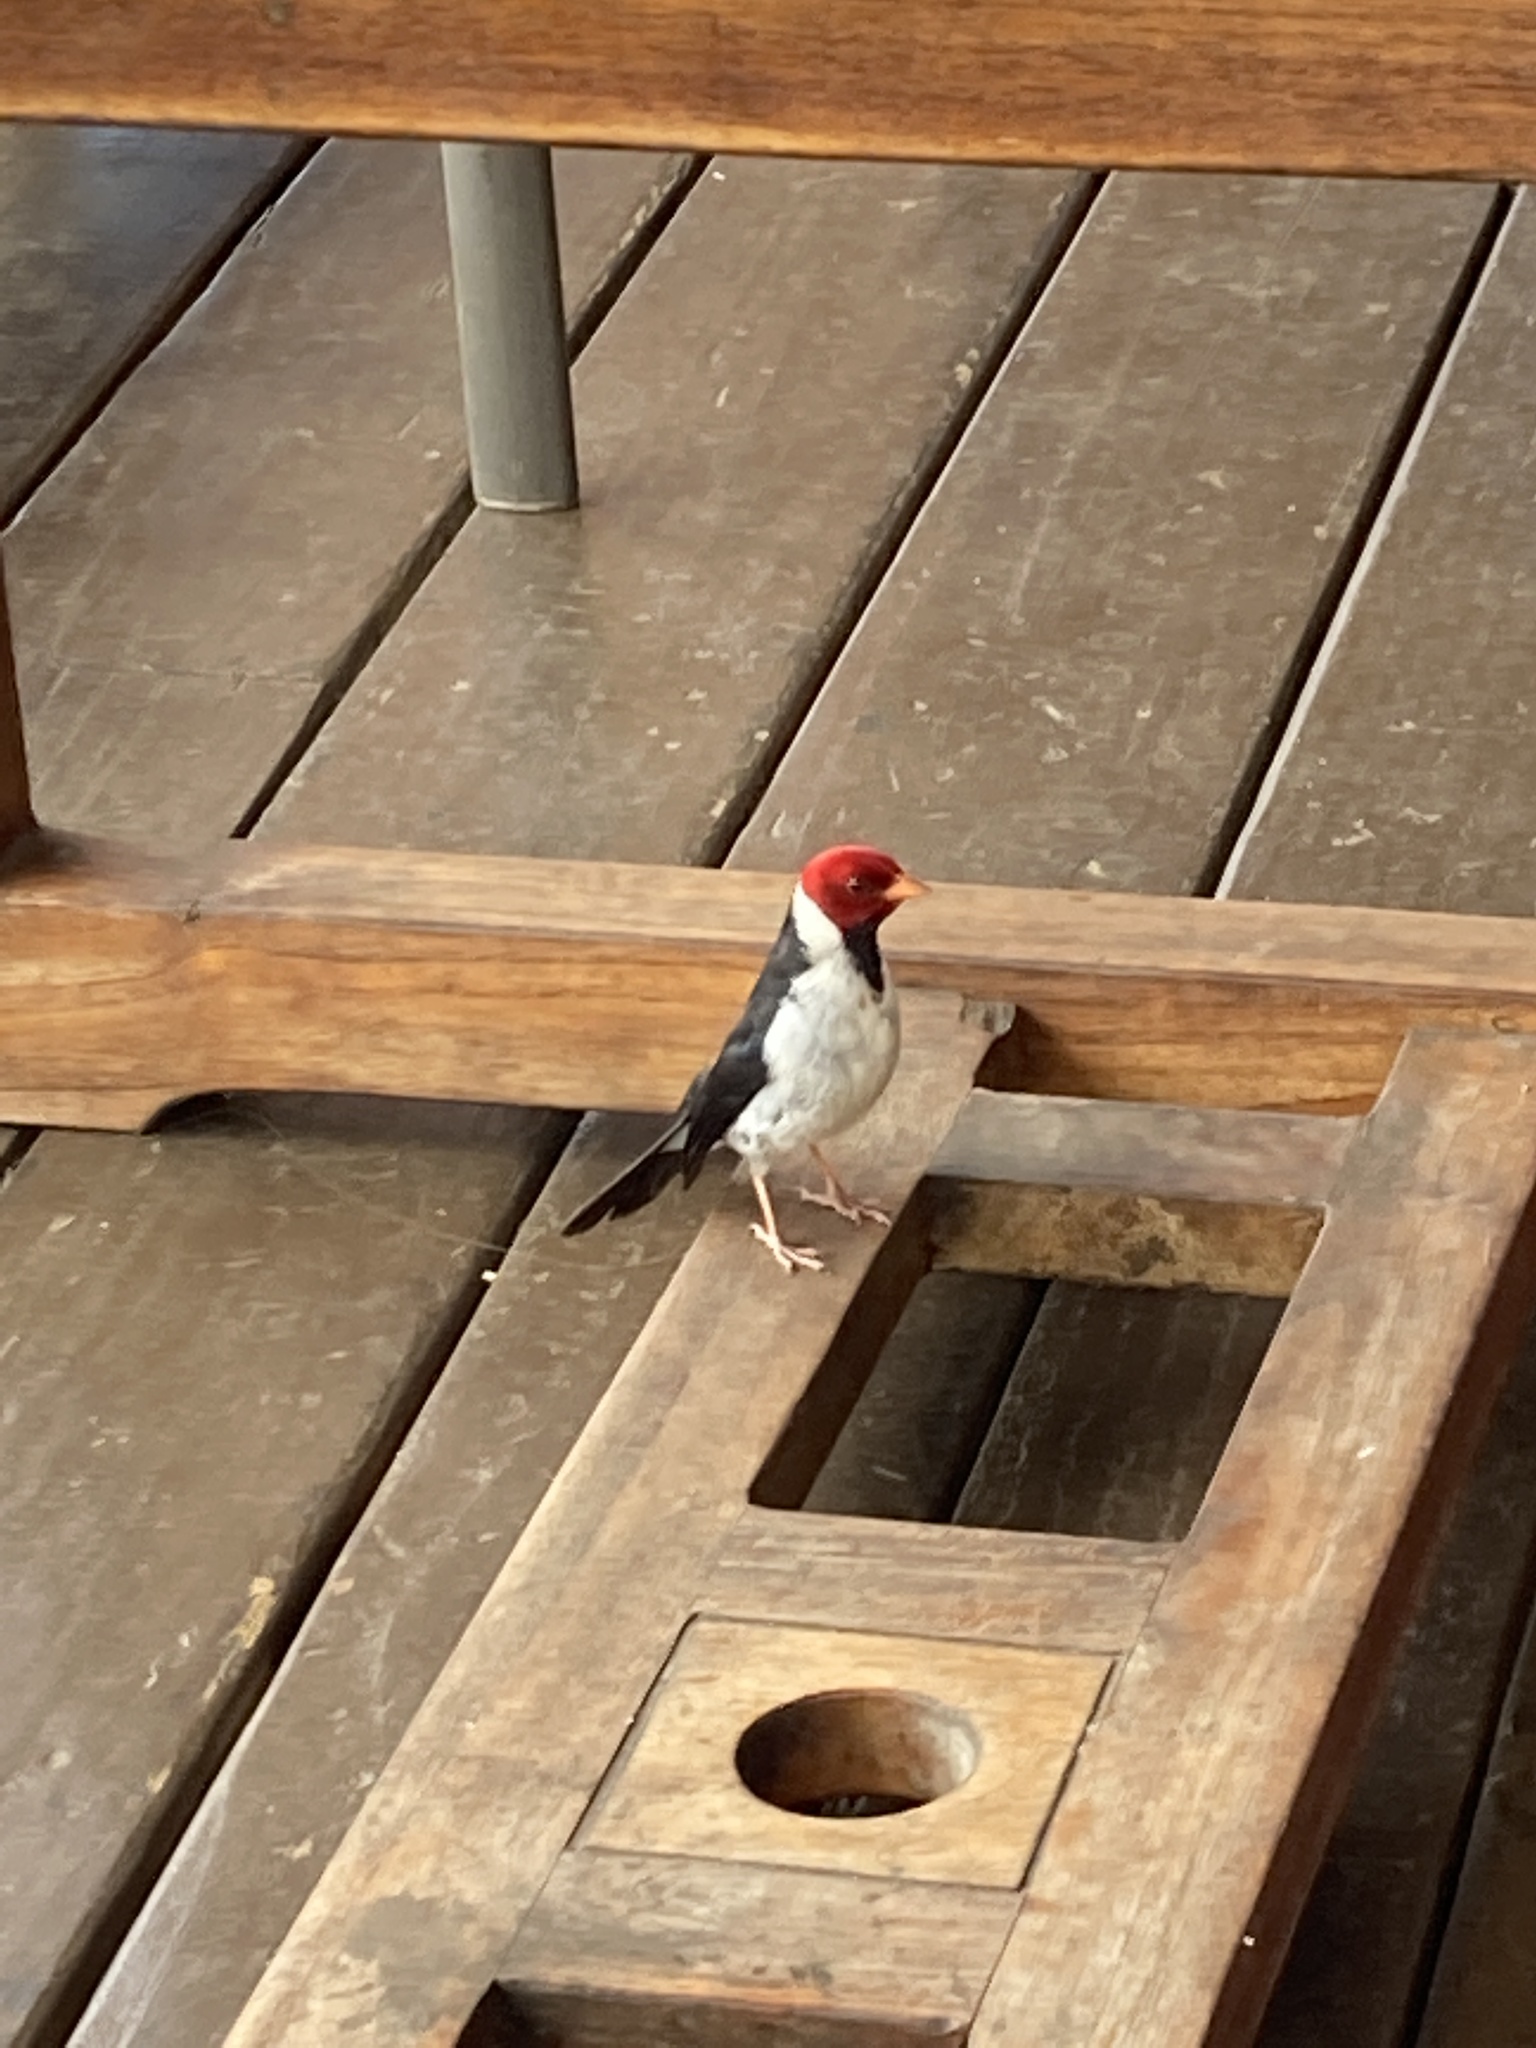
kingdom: Animalia
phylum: Chordata
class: Aves
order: Passeriformes
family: Thraupidae
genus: Paroaria
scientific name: Paroaria capitata
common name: Yellow-billed cardinal
